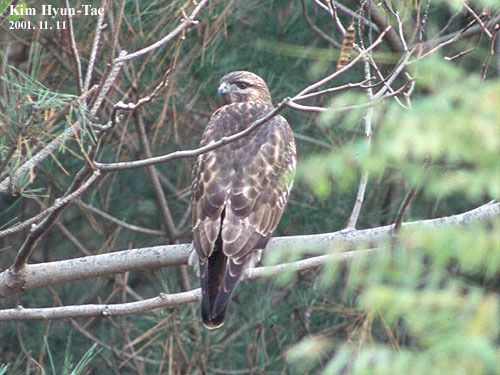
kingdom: Animalia
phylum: Chordata
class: Aves
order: Accipitriformes
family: Accipitridae
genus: Buteo
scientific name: Buteo japonicus
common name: Eastern buzzard
